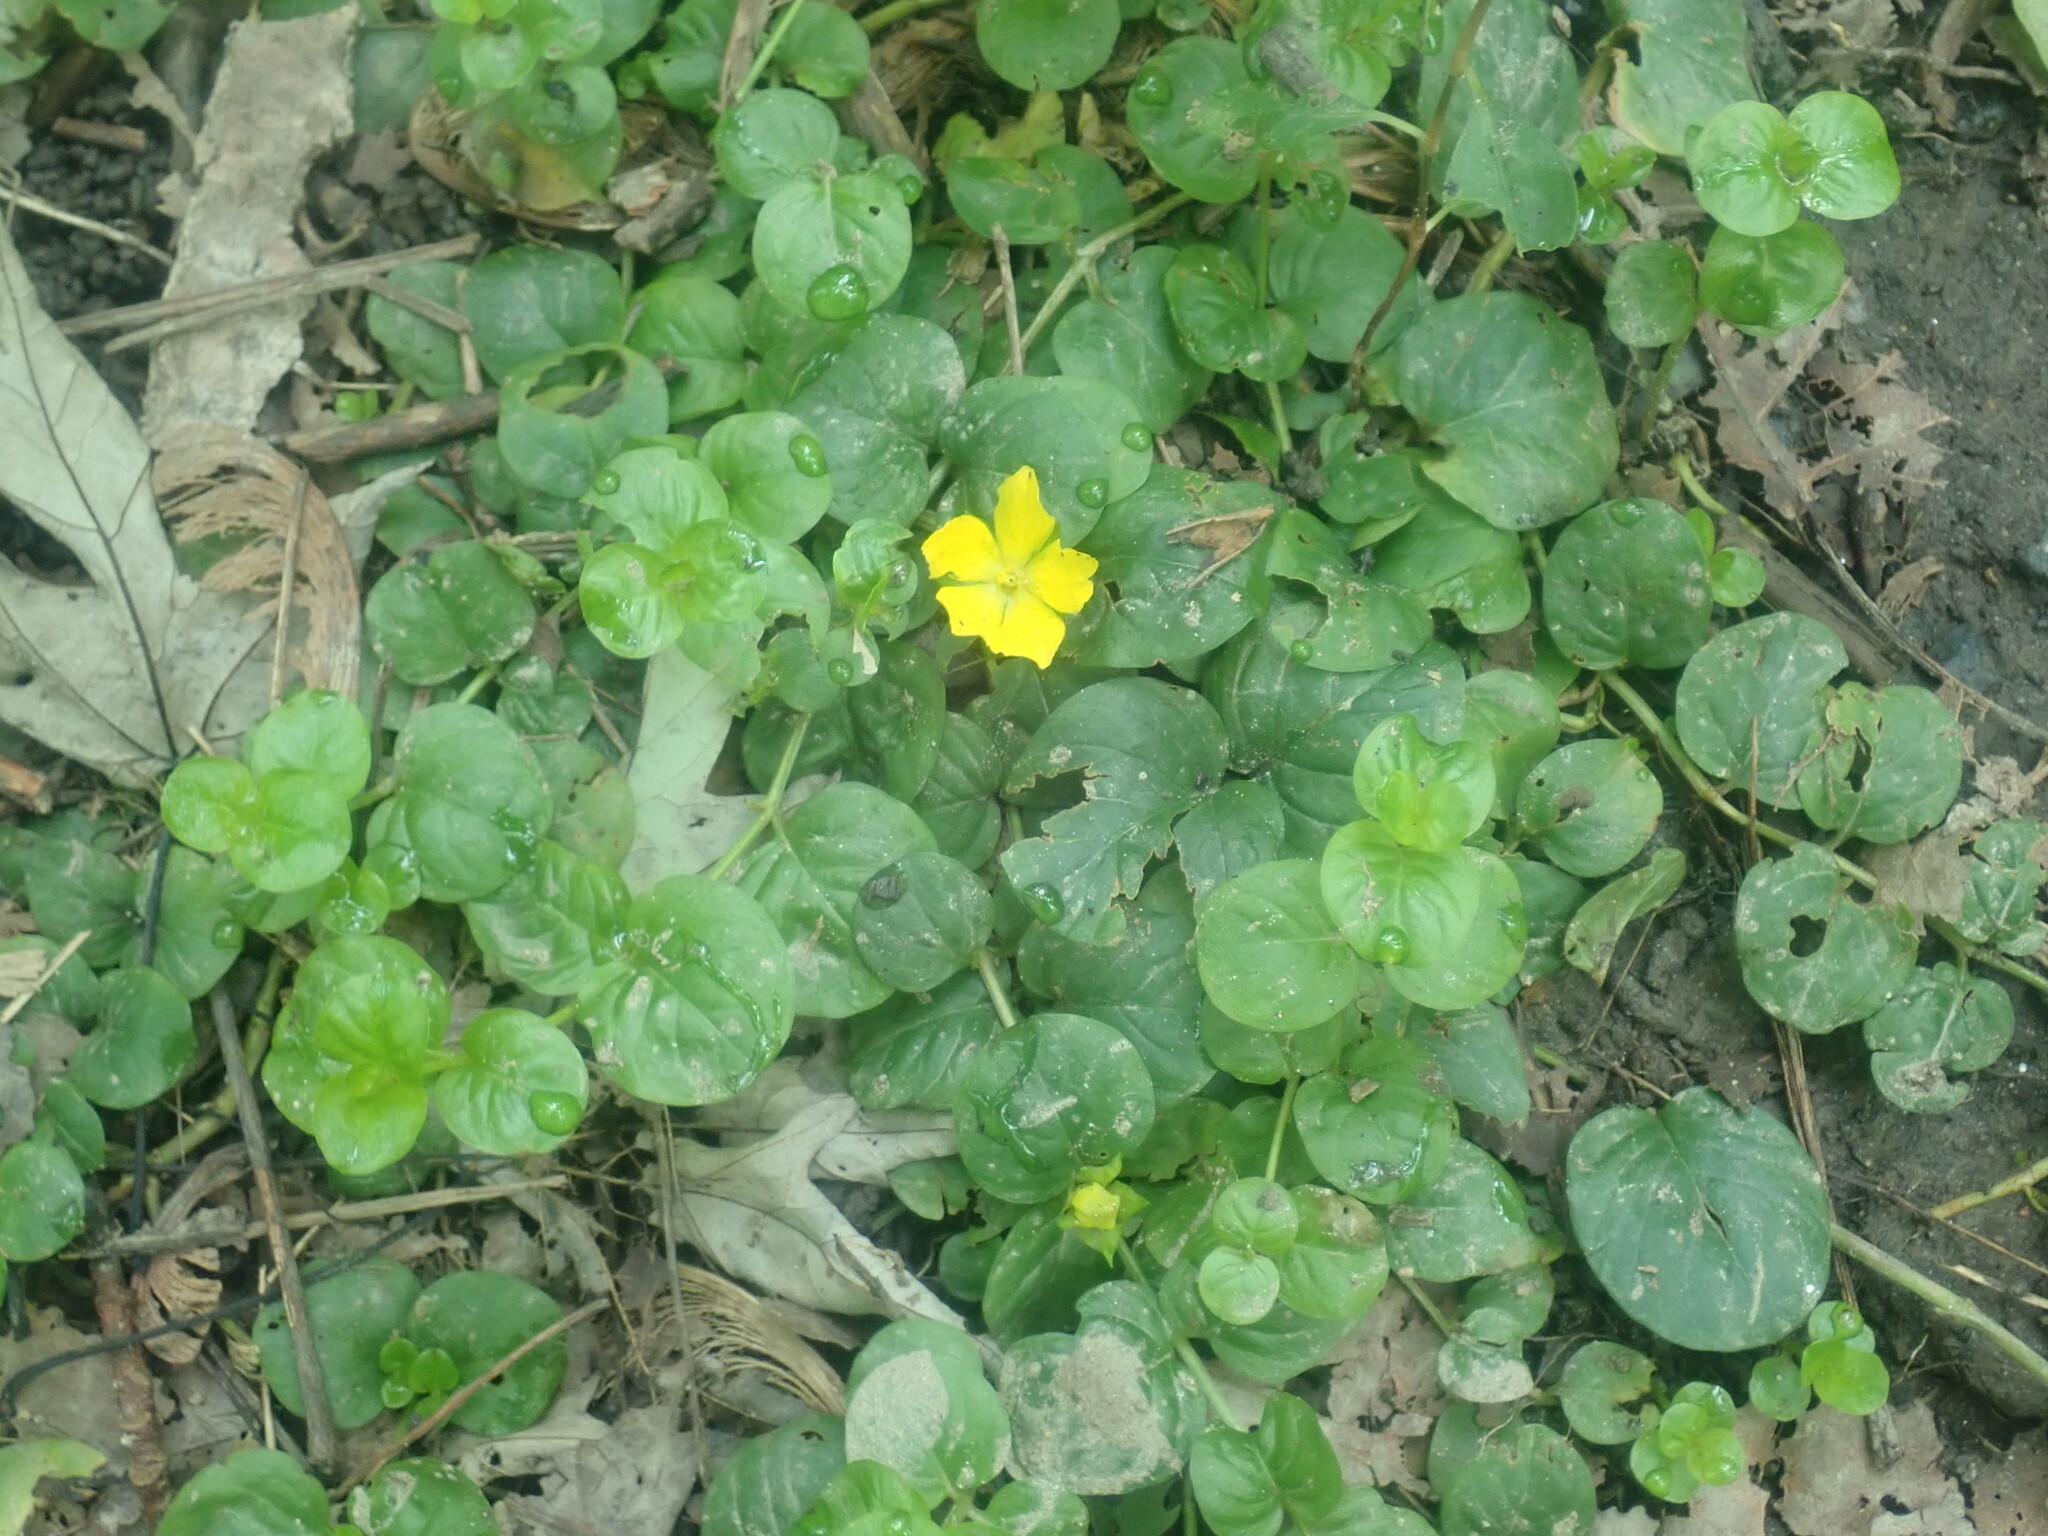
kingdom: Plantae
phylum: Tracheophyta
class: Magnoliopsida
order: Ericales
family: Primulaceae
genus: Lysimachia
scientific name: Lysimachia nummularia
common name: Moneywort
